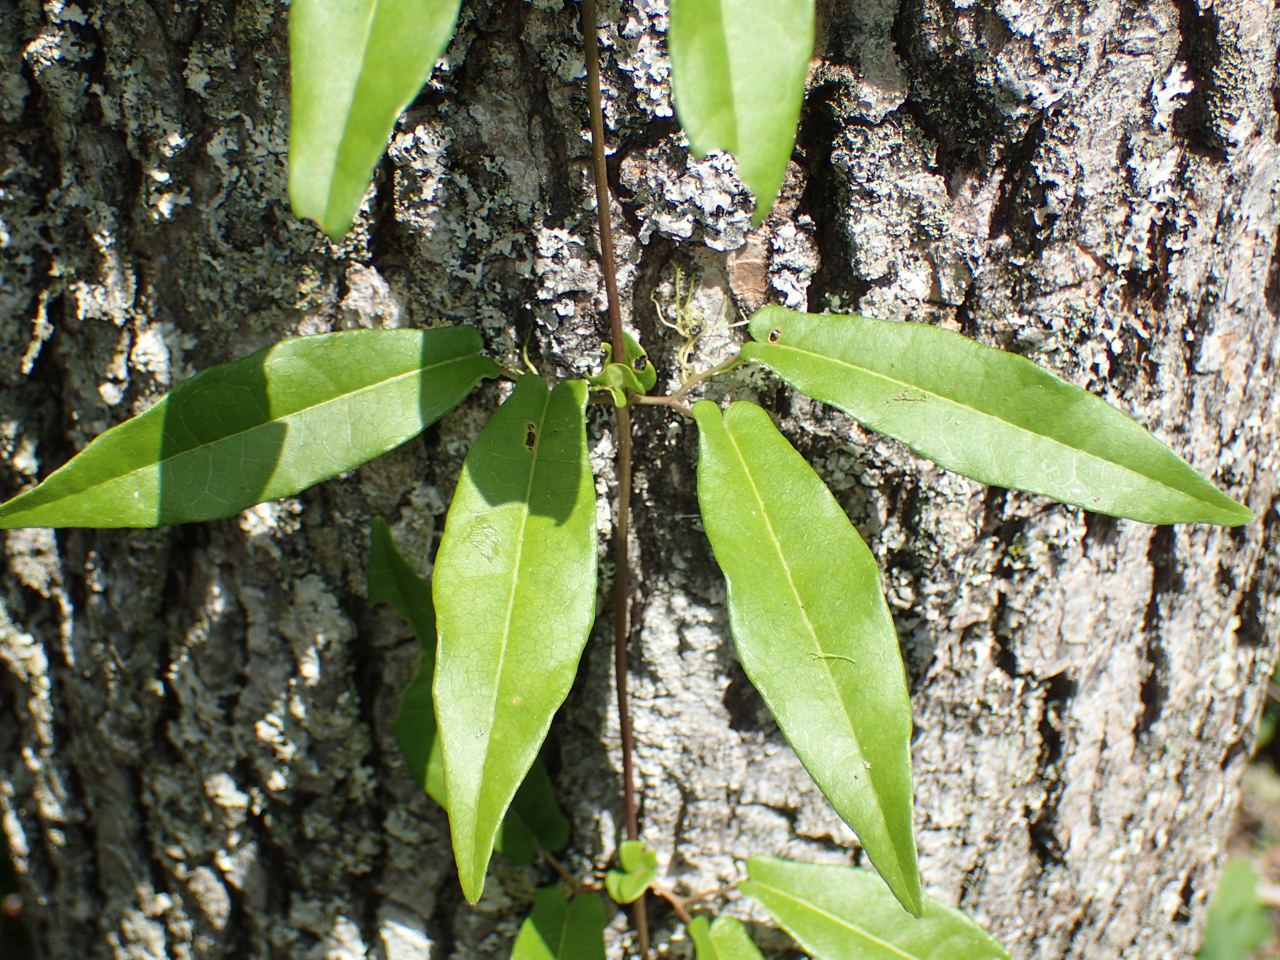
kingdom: Plantae
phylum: Tracheophyta
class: Magnoliopsida
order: Lamiales
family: Bignoniaceae
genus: Bignonia
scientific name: Bignonia capreolata
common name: Crossvine
